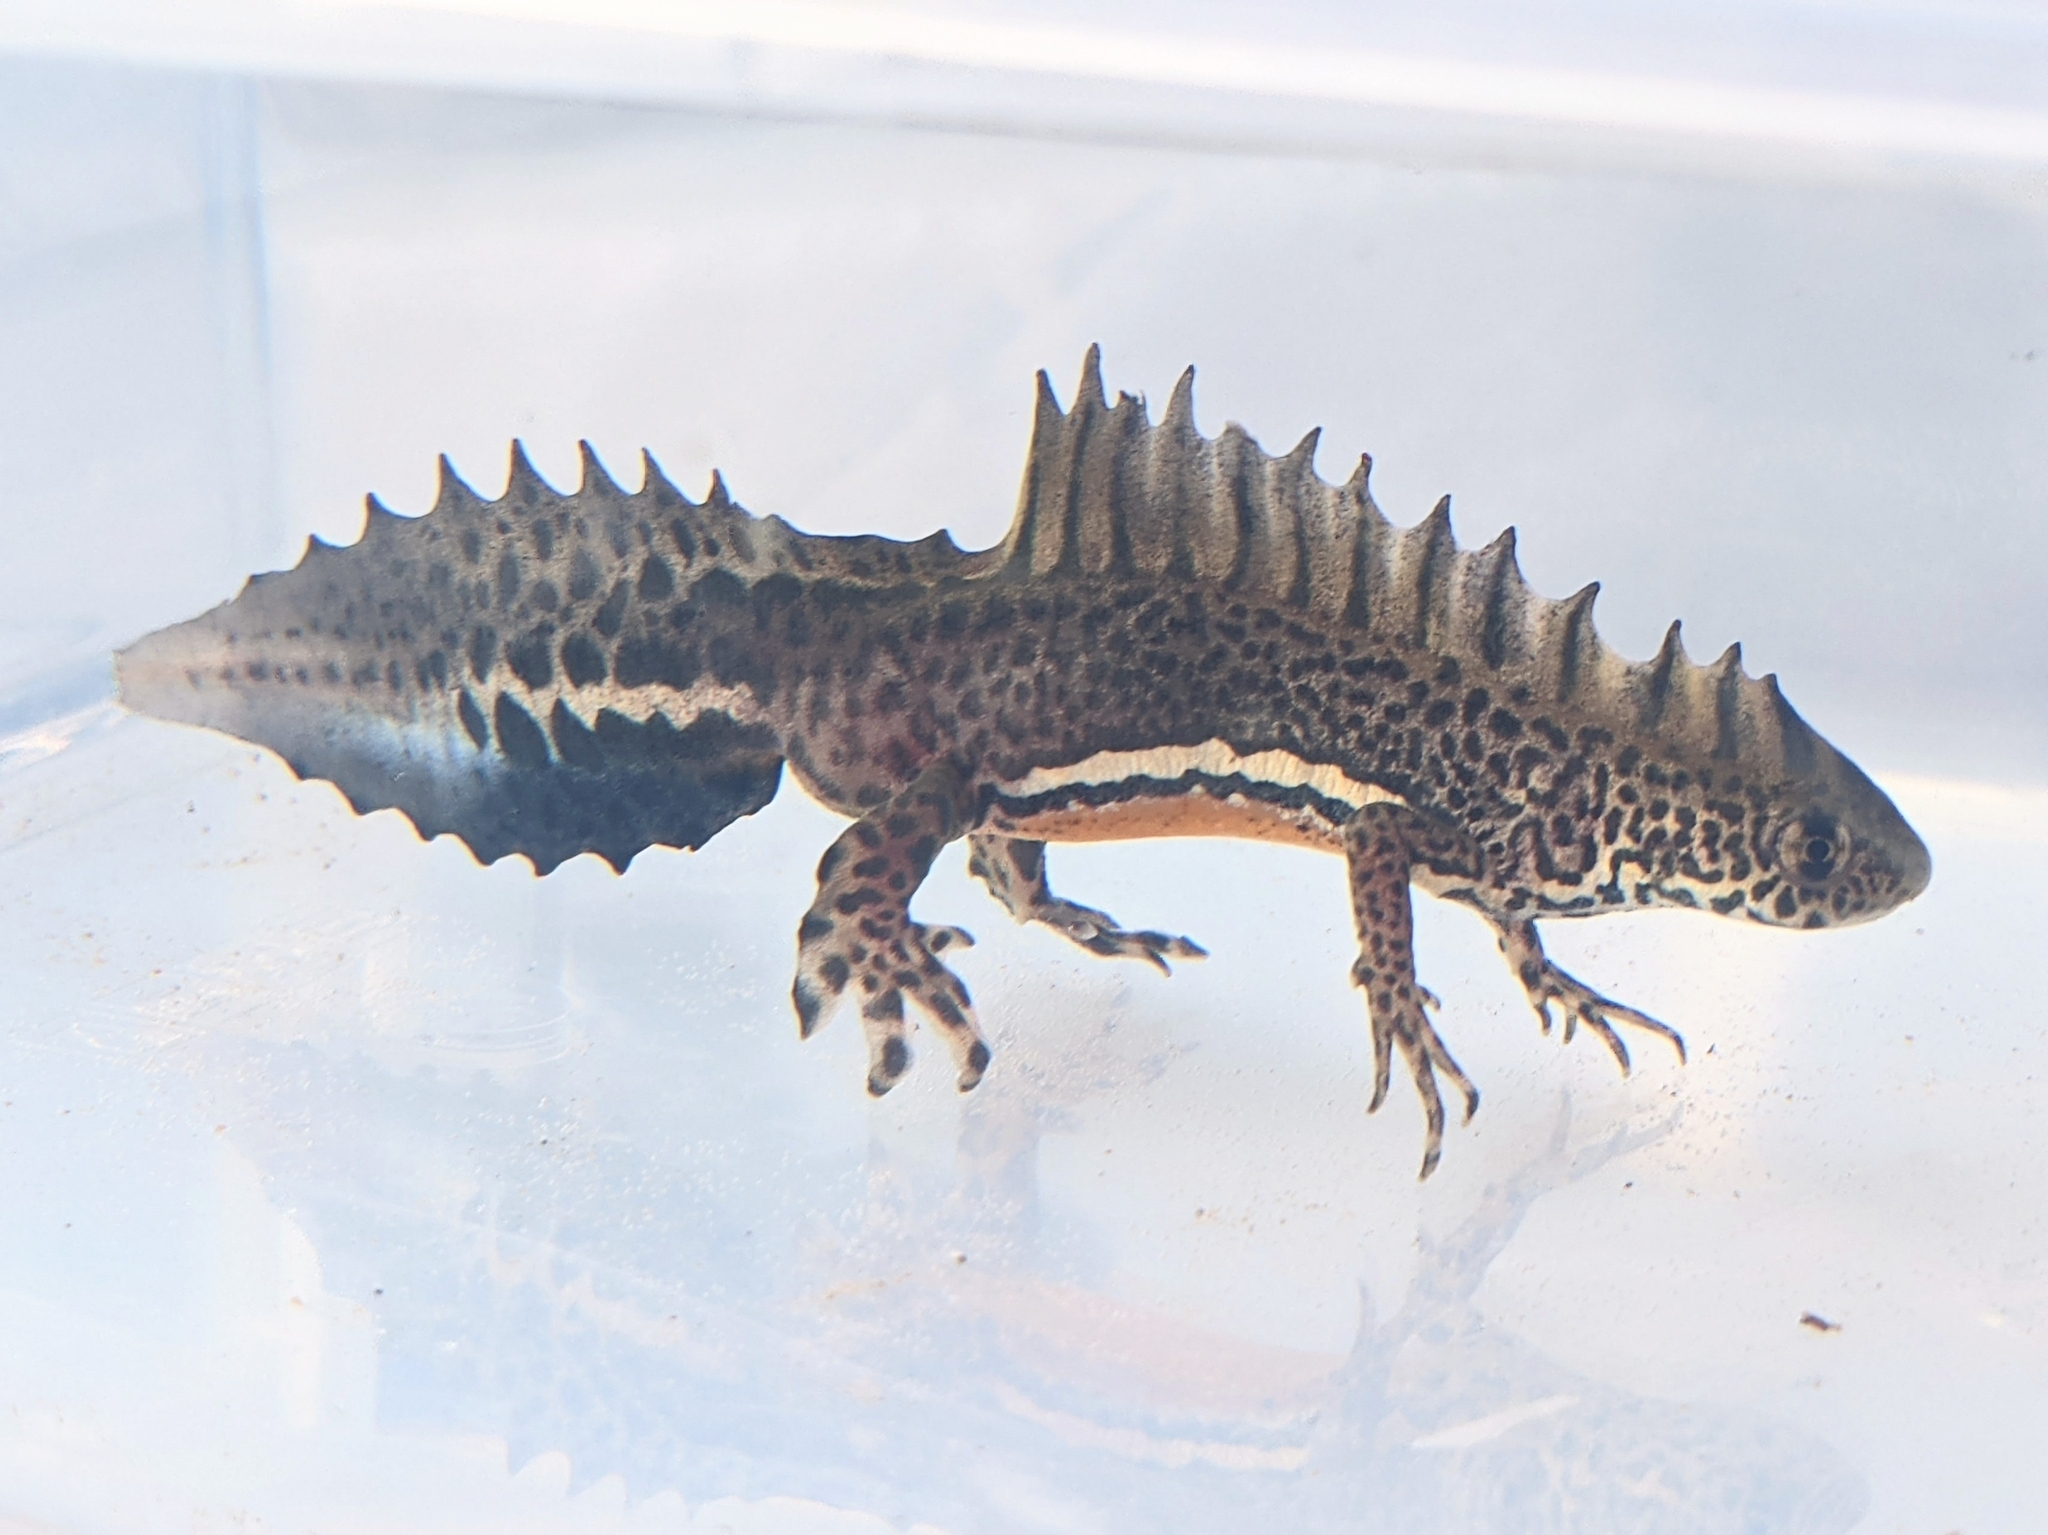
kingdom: Animalia
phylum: Chordata
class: Amphibia
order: Caudata
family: Salamandridae
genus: Ommatotriton
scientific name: Ommatotriton ophryticus
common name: Northern banded newt
